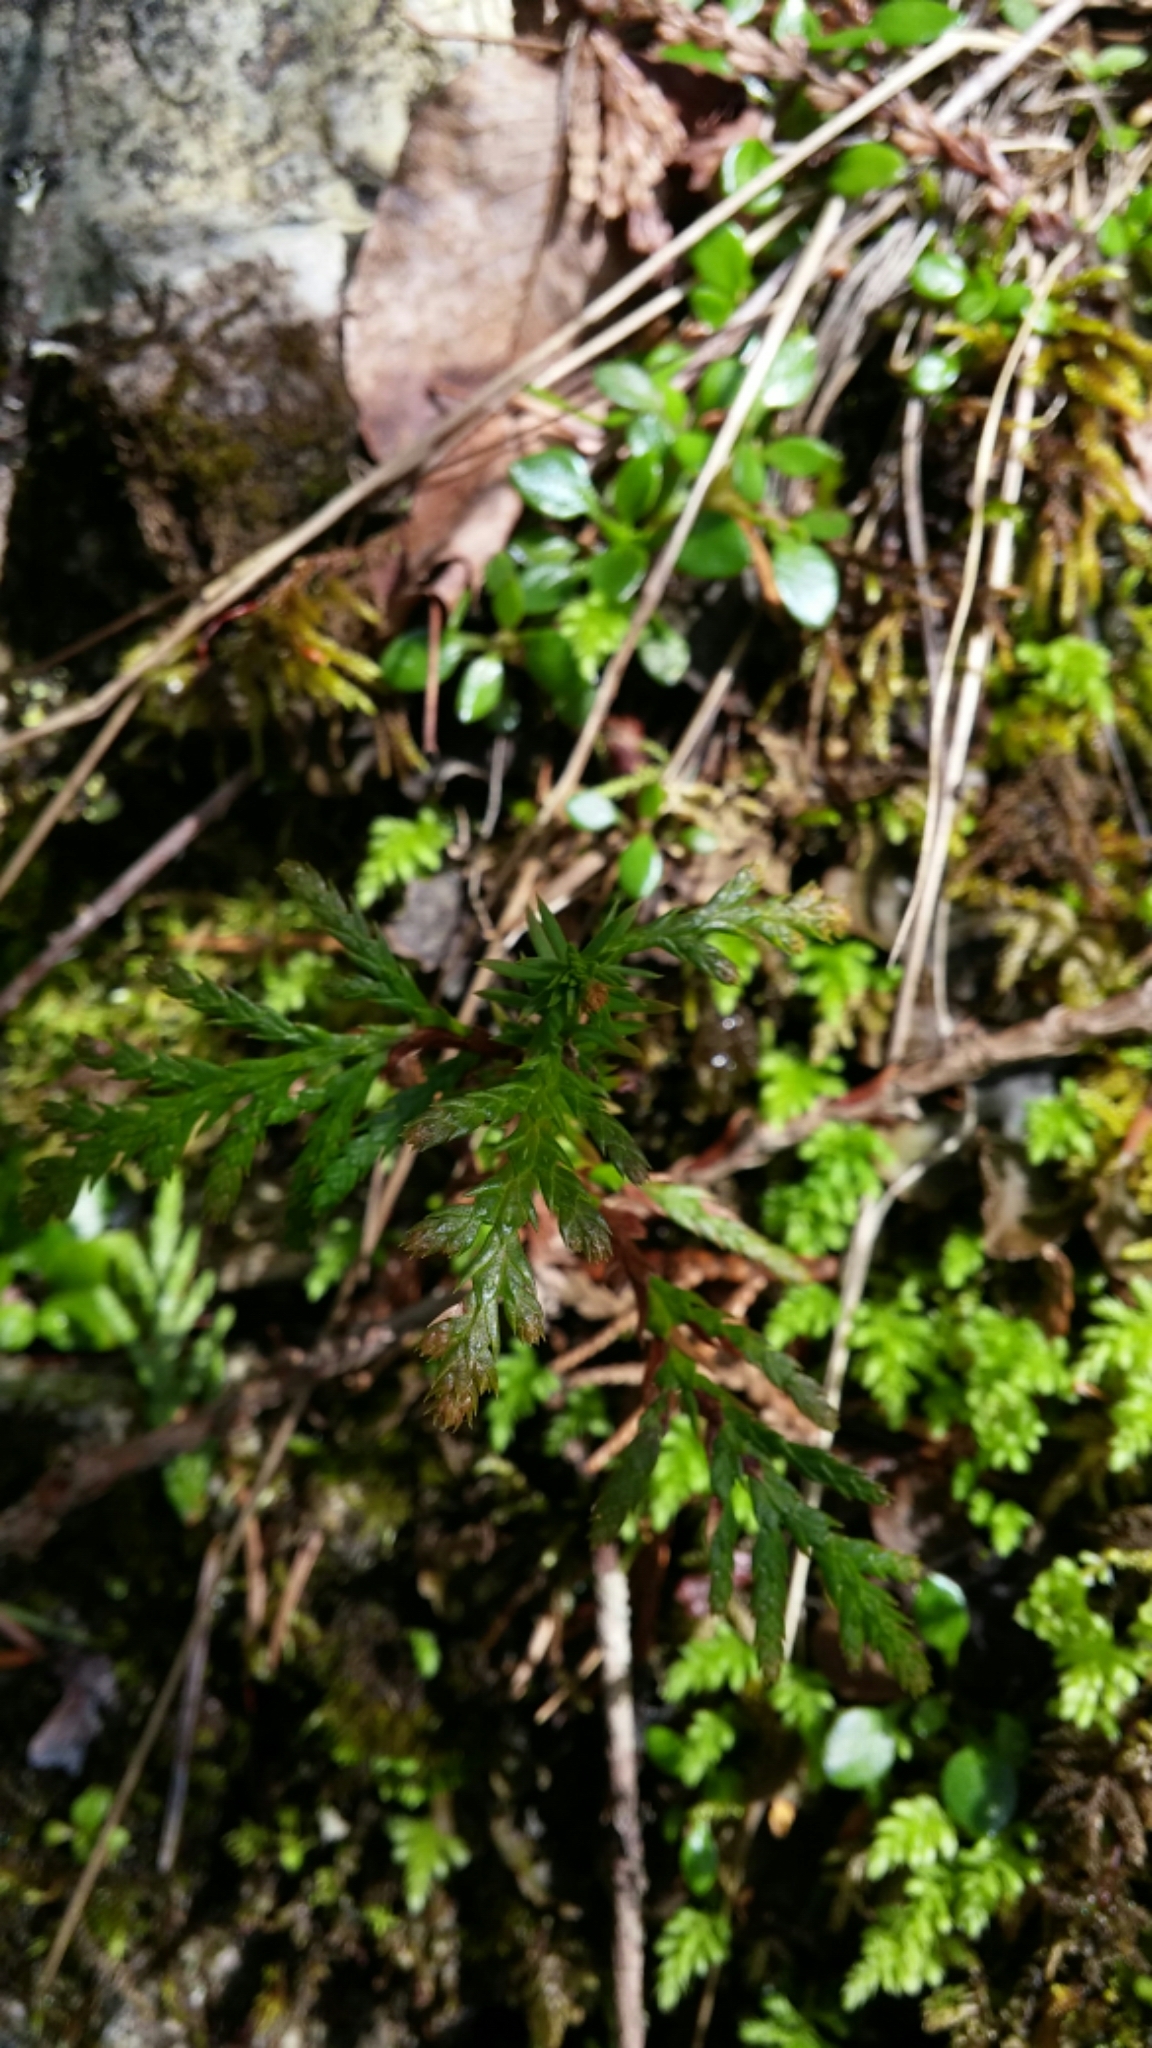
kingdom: Plantae
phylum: Tracheophyta
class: Pinopsida
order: Pinales
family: Cupressaceae
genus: Thuja
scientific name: Thuja plicata
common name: Western red-cedar
